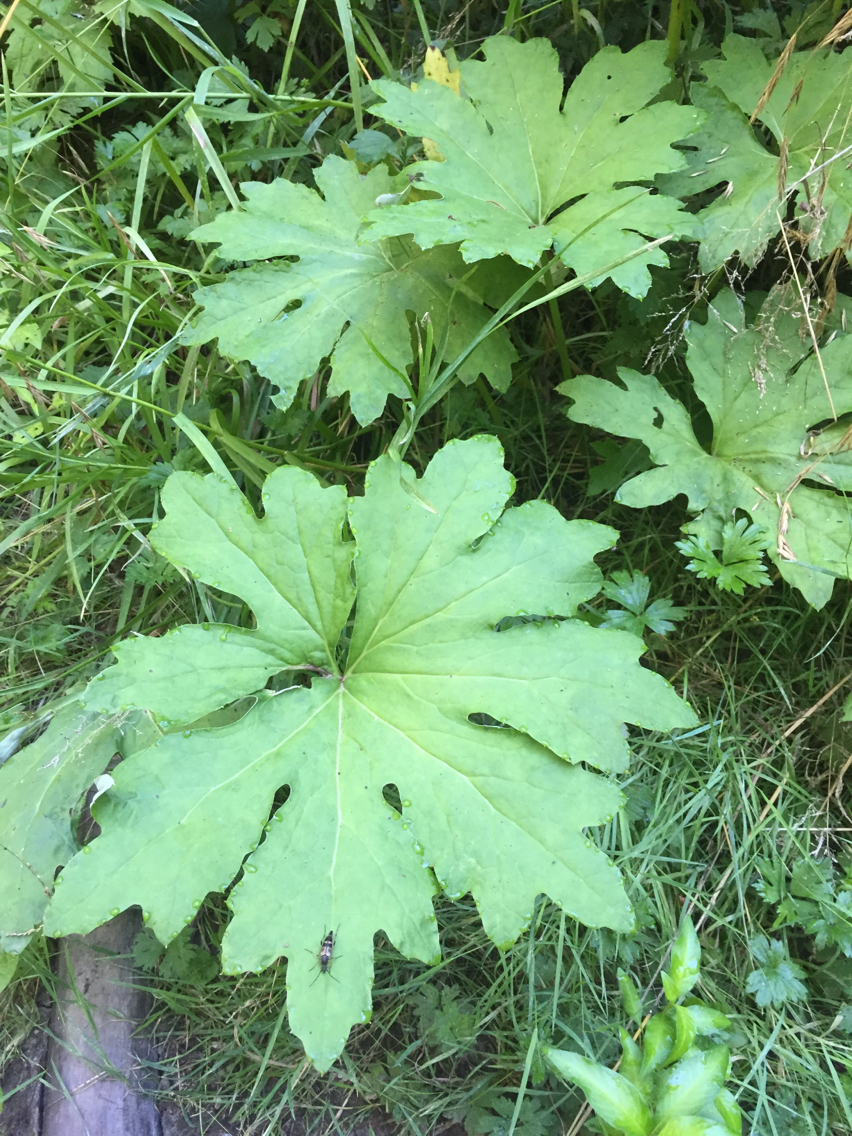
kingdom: Plantae
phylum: Tracheophyta
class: Magnoliopsida
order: Asterales
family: Asteraceae
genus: Petasites
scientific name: Petasites frigidus
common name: Arctic butterbur
